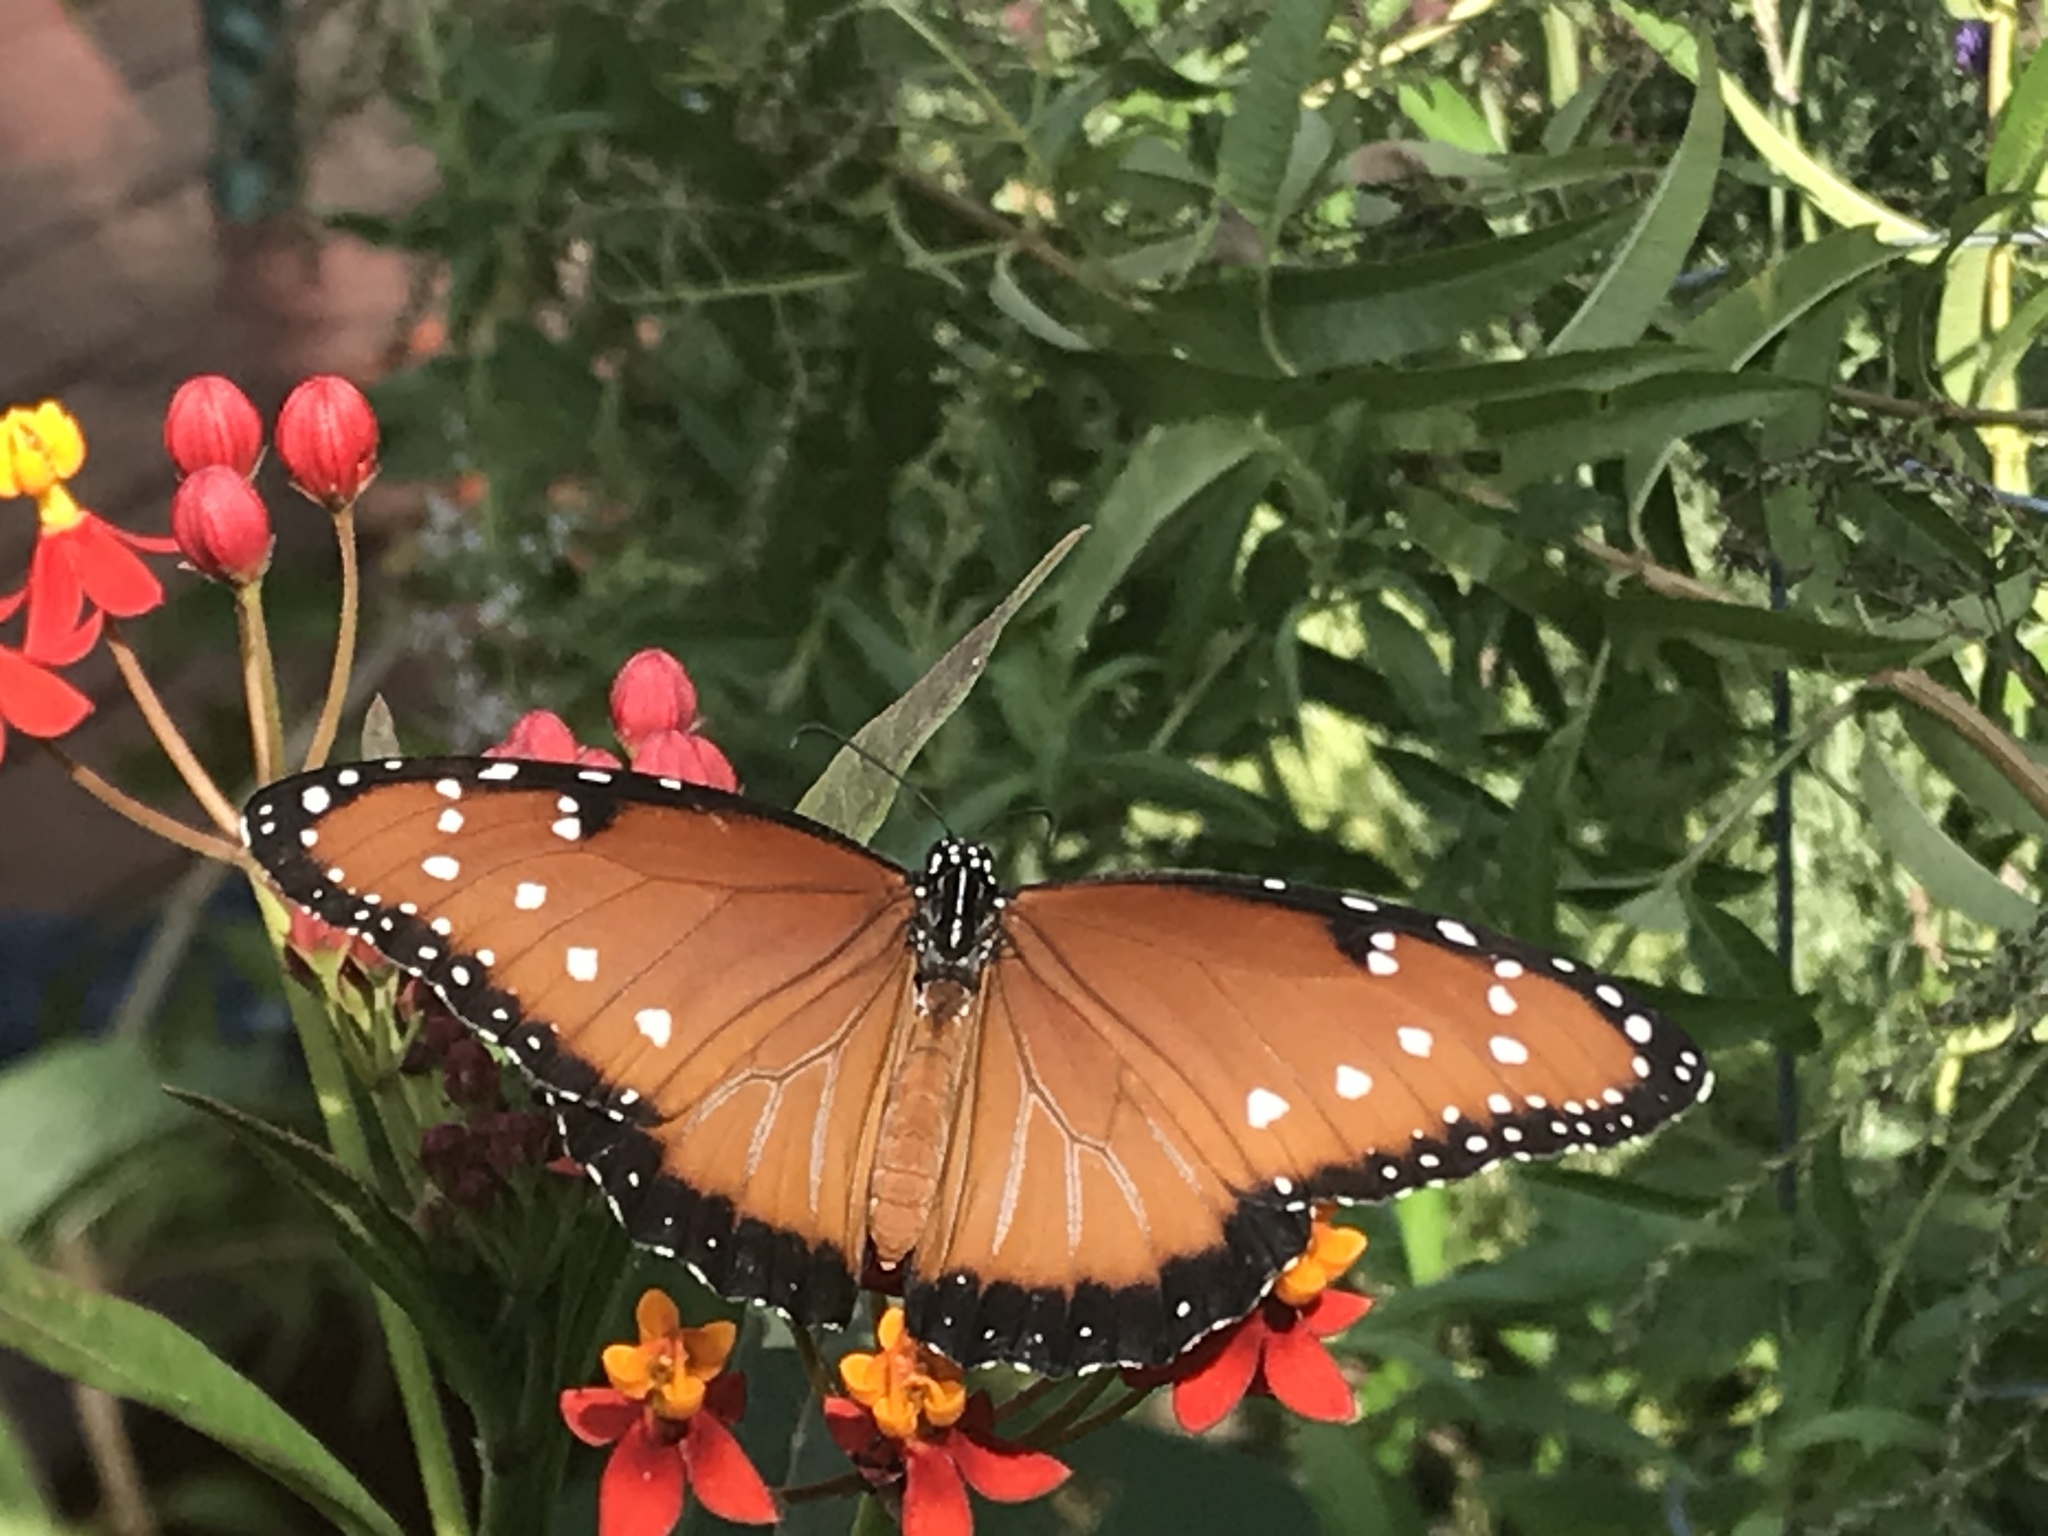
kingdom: Animalia
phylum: Arthropoda
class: Insecta
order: Lepidoptera
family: Nymphalidae
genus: Danaus
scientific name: Danaus gilippus
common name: Queen
